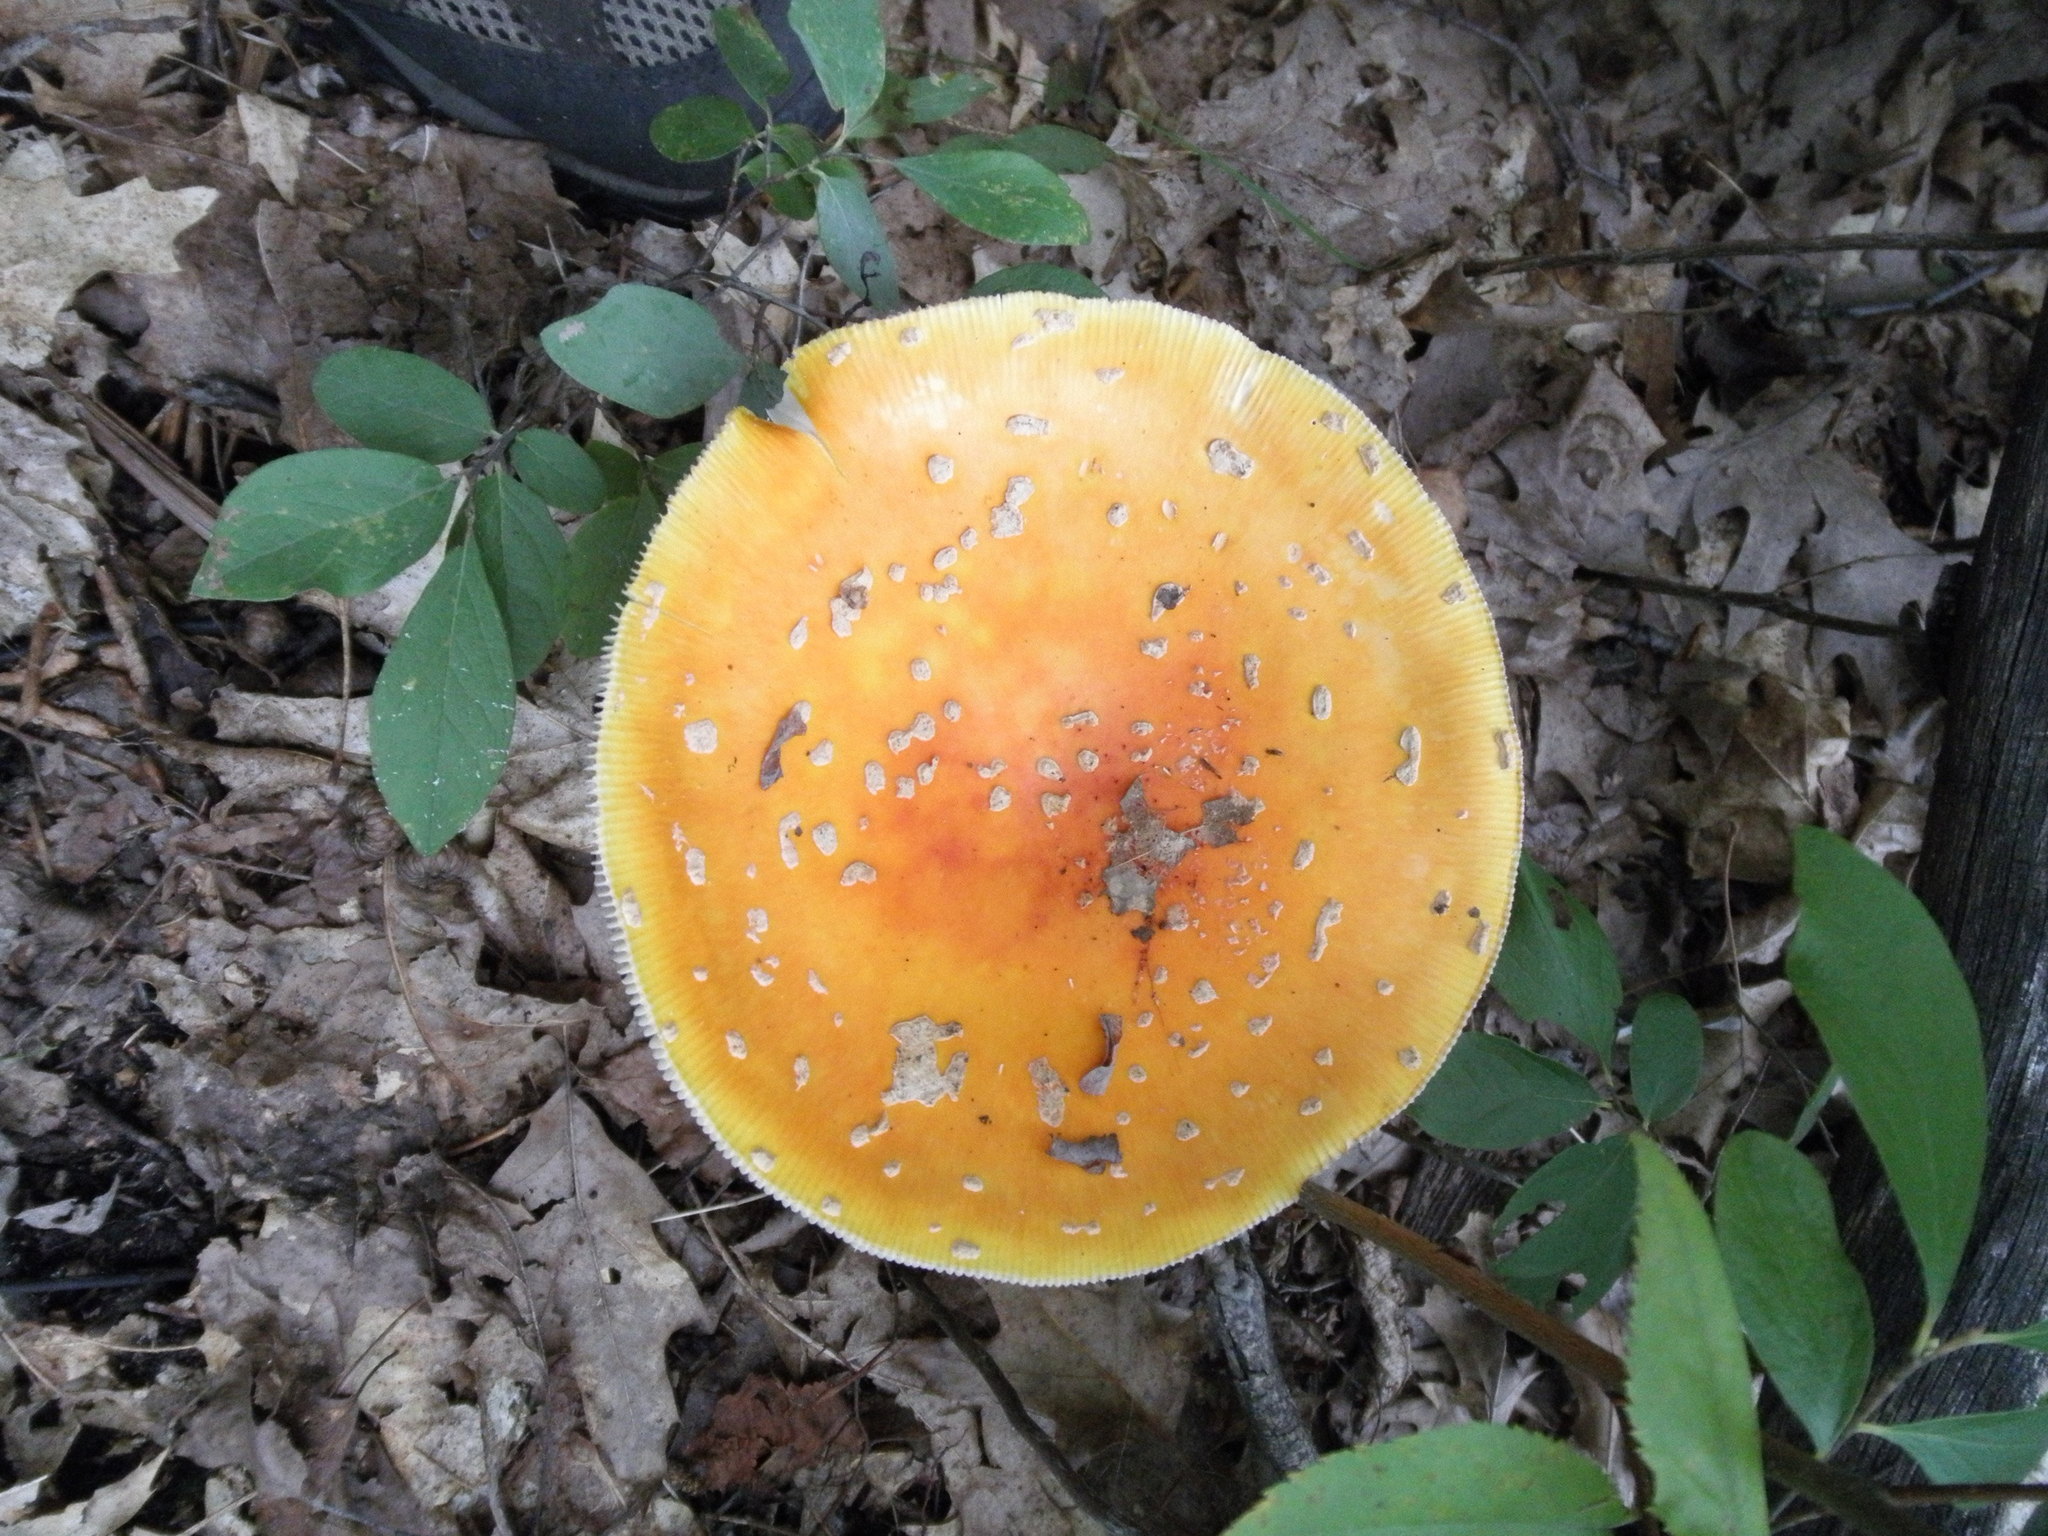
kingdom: Fungi
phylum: Basidiomycota
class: Agaricomycetes
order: Agaricales
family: Amanitaceae
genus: Amanita
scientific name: Amanita muscaria
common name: Fly agaric
